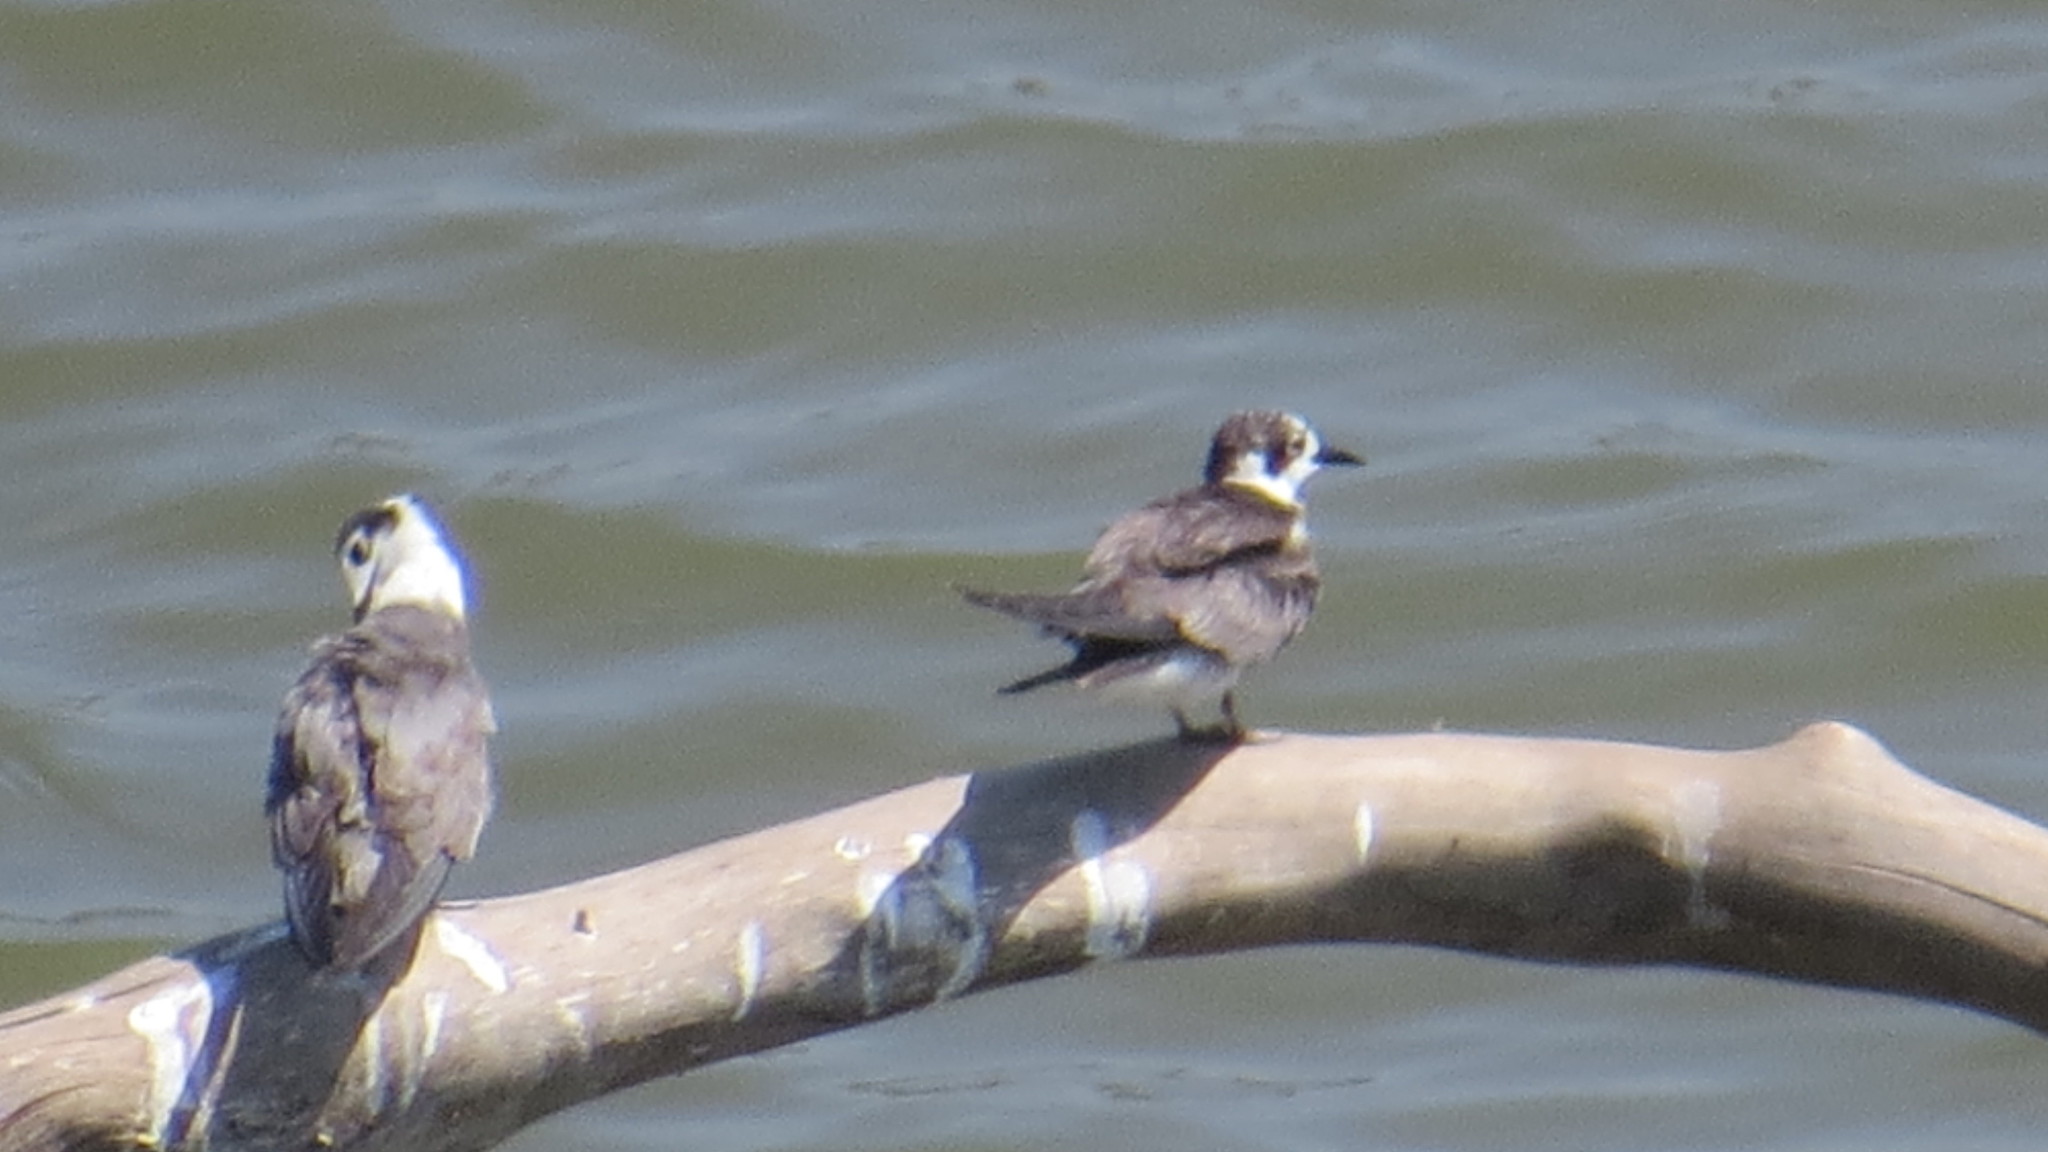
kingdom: Animalia
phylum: Chordata
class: Aves
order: Charadriiformes
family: Laridae
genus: Chlidonias
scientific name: Chlidonias niger
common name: Black tern
